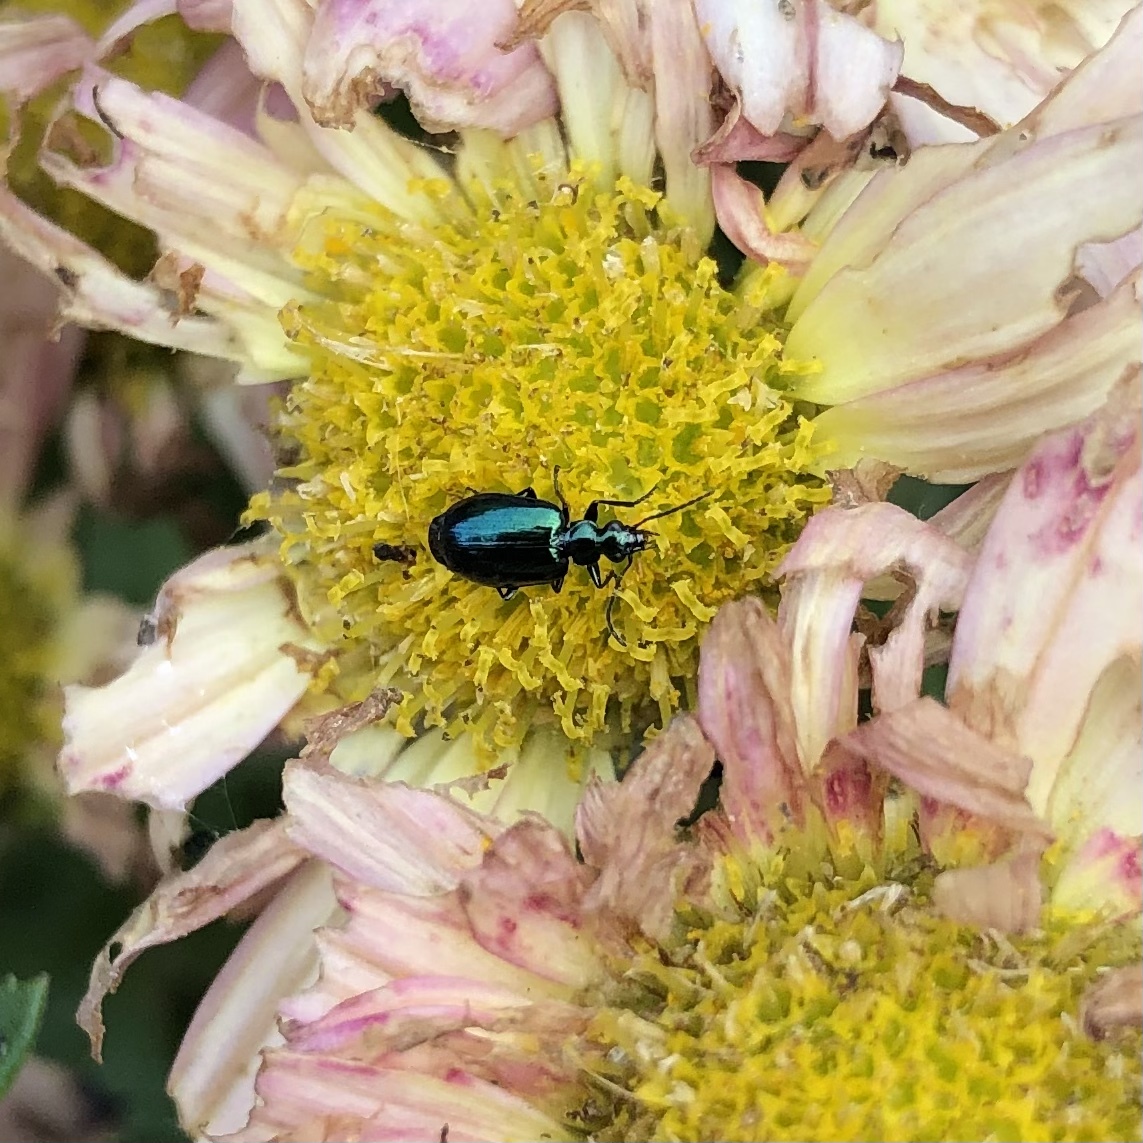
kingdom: Animalia
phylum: Arthropoda
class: Insecta
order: Coleoptera
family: Carabidae
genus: Lebia
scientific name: Lebia viridis
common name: Flower lebia beetle
